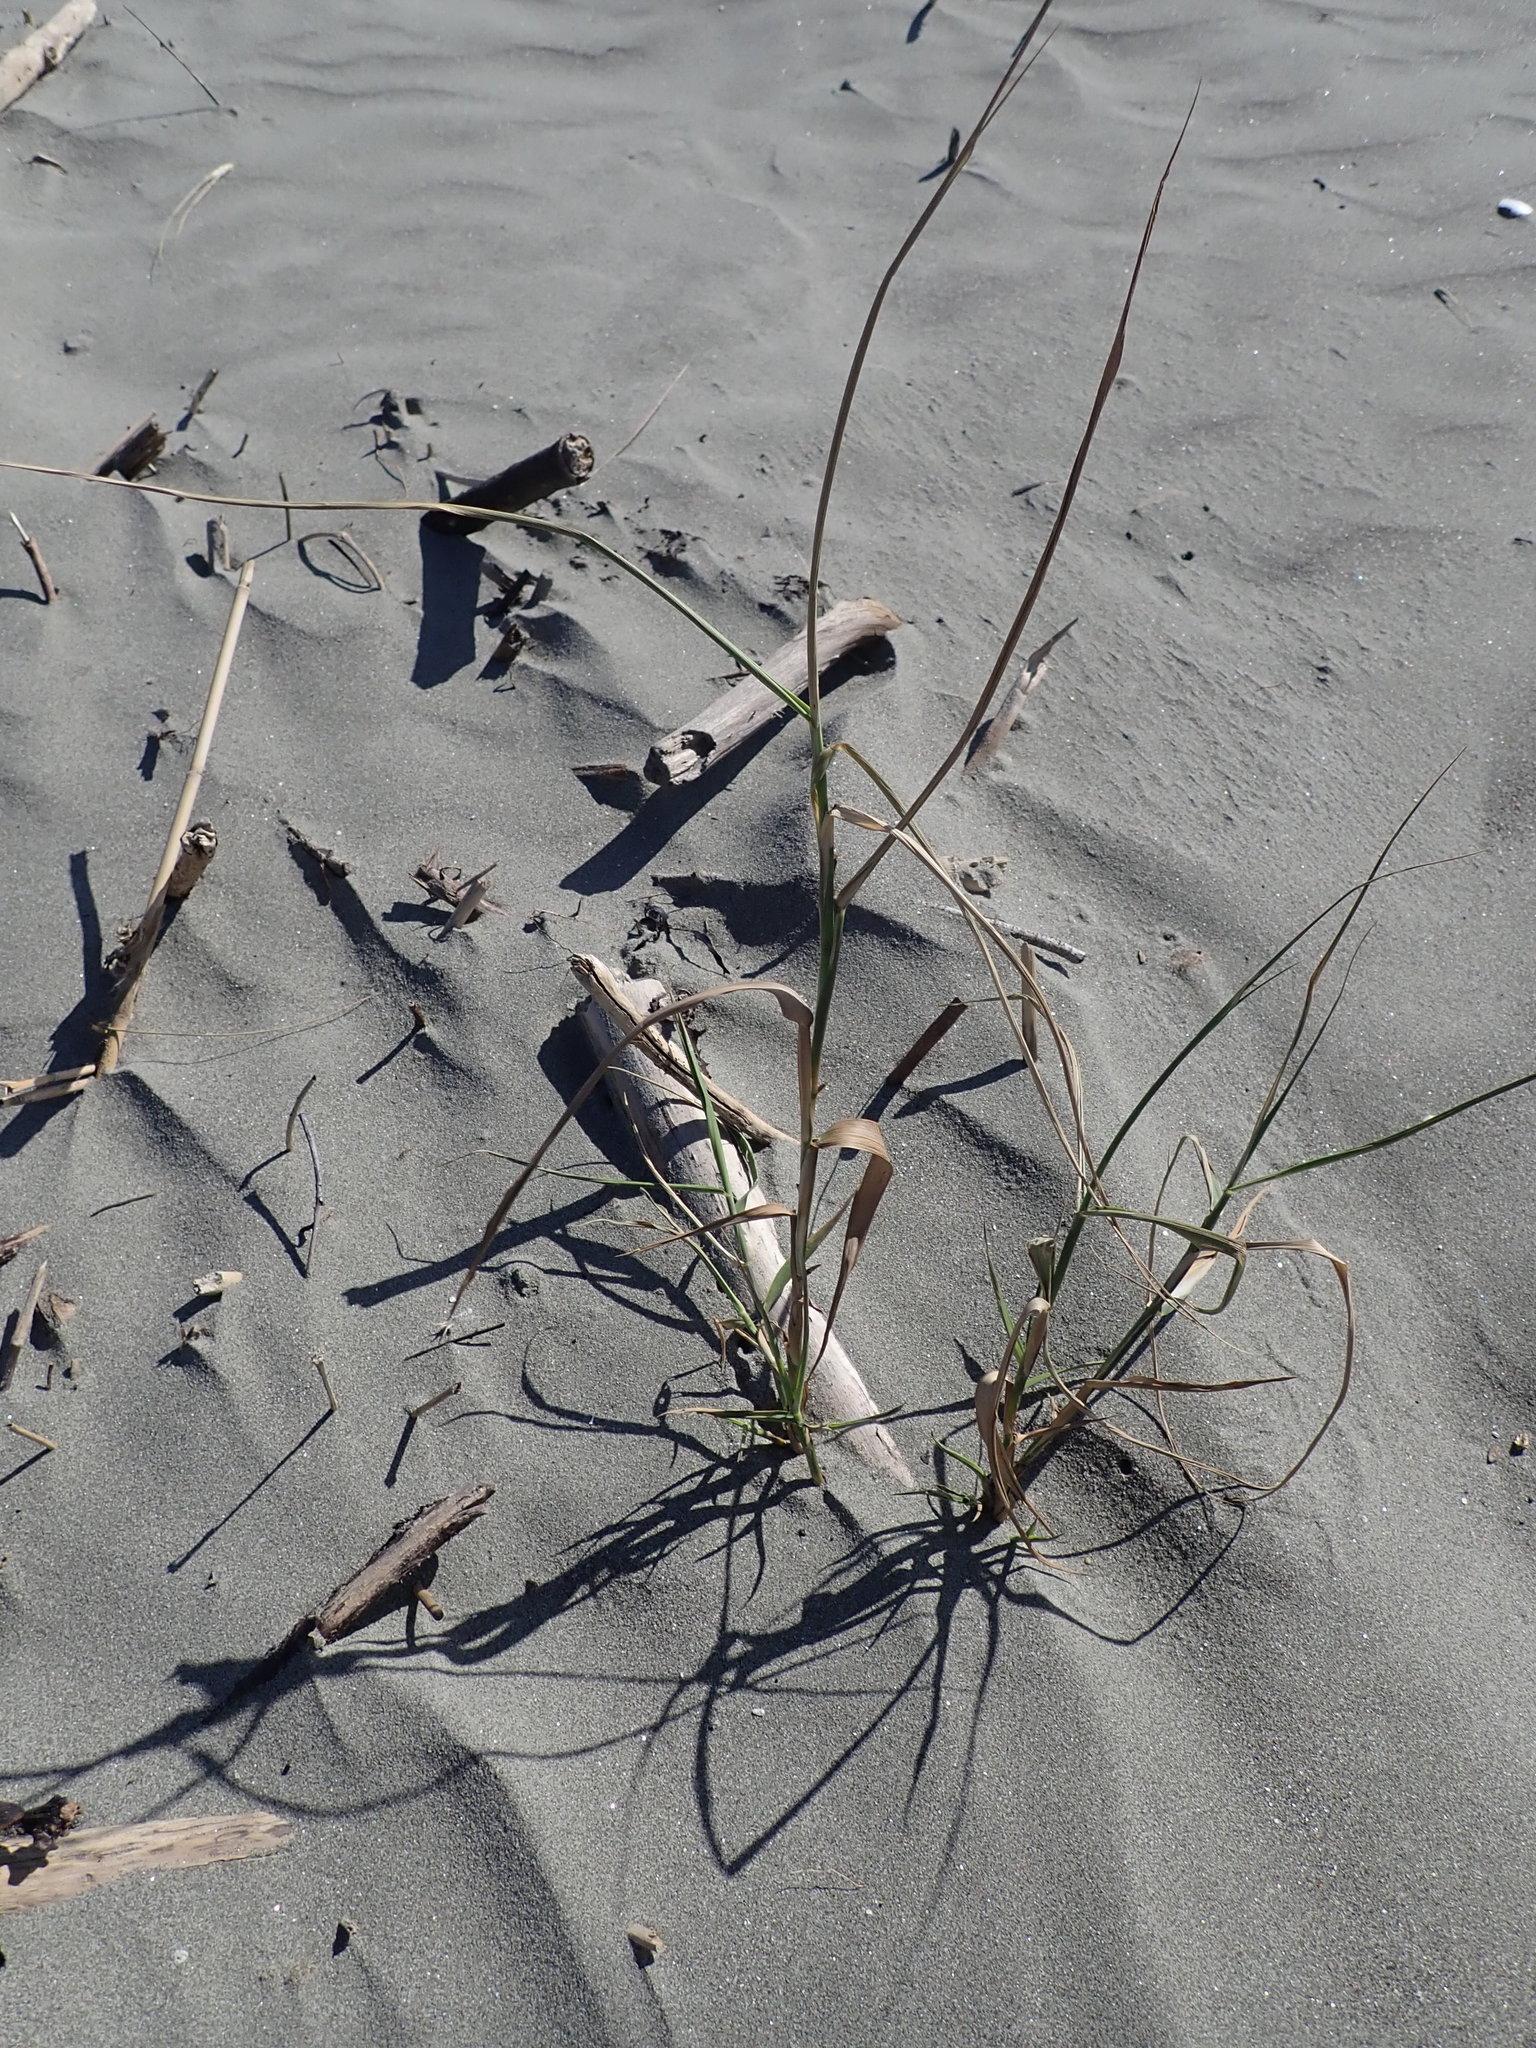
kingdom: Plantae
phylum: Tracheophyta
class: Liliopsida
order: Poales
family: Poaceae
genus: Phragmites
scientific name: Phragmites karka
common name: Tropical reed
